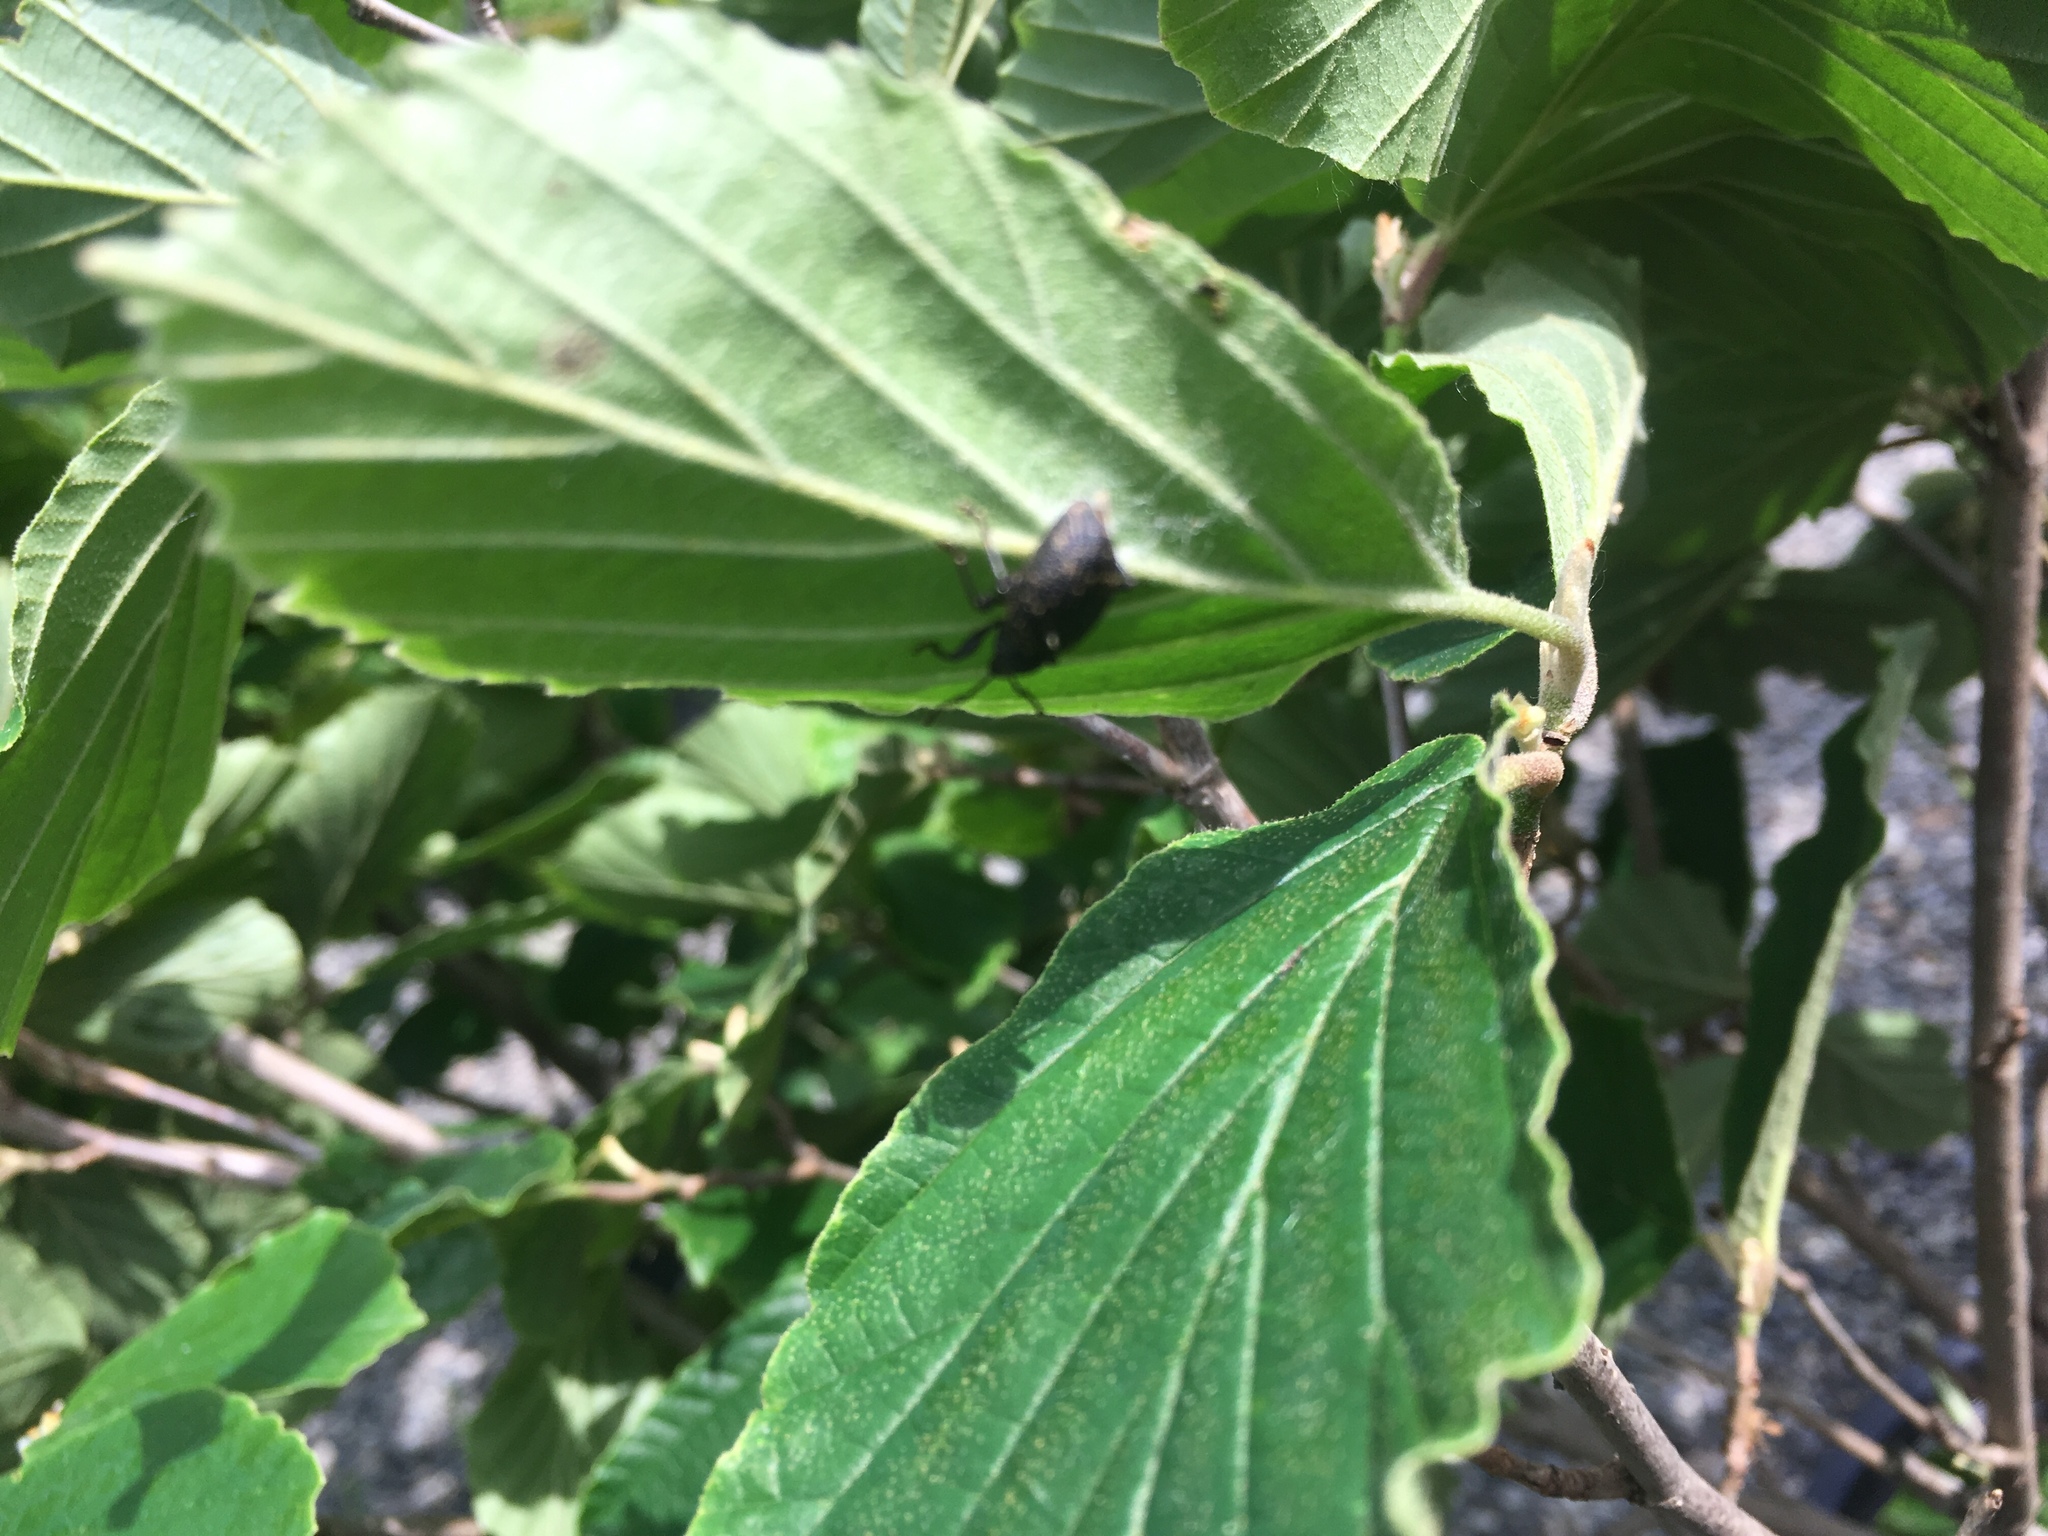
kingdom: Animalia
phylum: Arthropoda
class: Insecta
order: Coleoptera
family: Curculionidae
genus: Otiorhynchus
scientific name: Otiorhynchus sulcatus
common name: Black vine weevil
